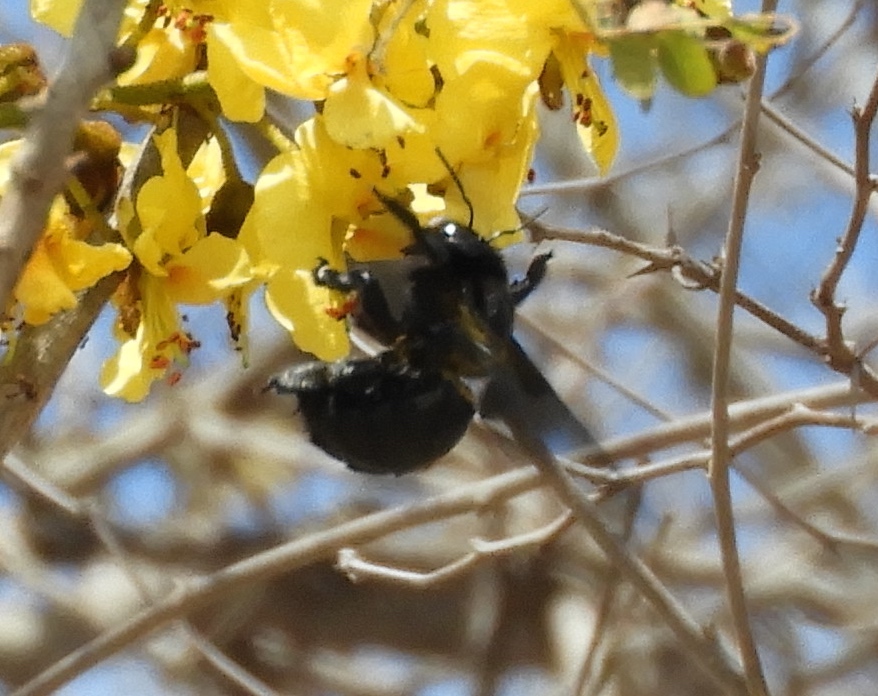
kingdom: Animalia
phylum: Arthropoda
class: Insecta
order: Hymenoptera
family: Apidae
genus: Xylocopa
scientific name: Xylocopa
